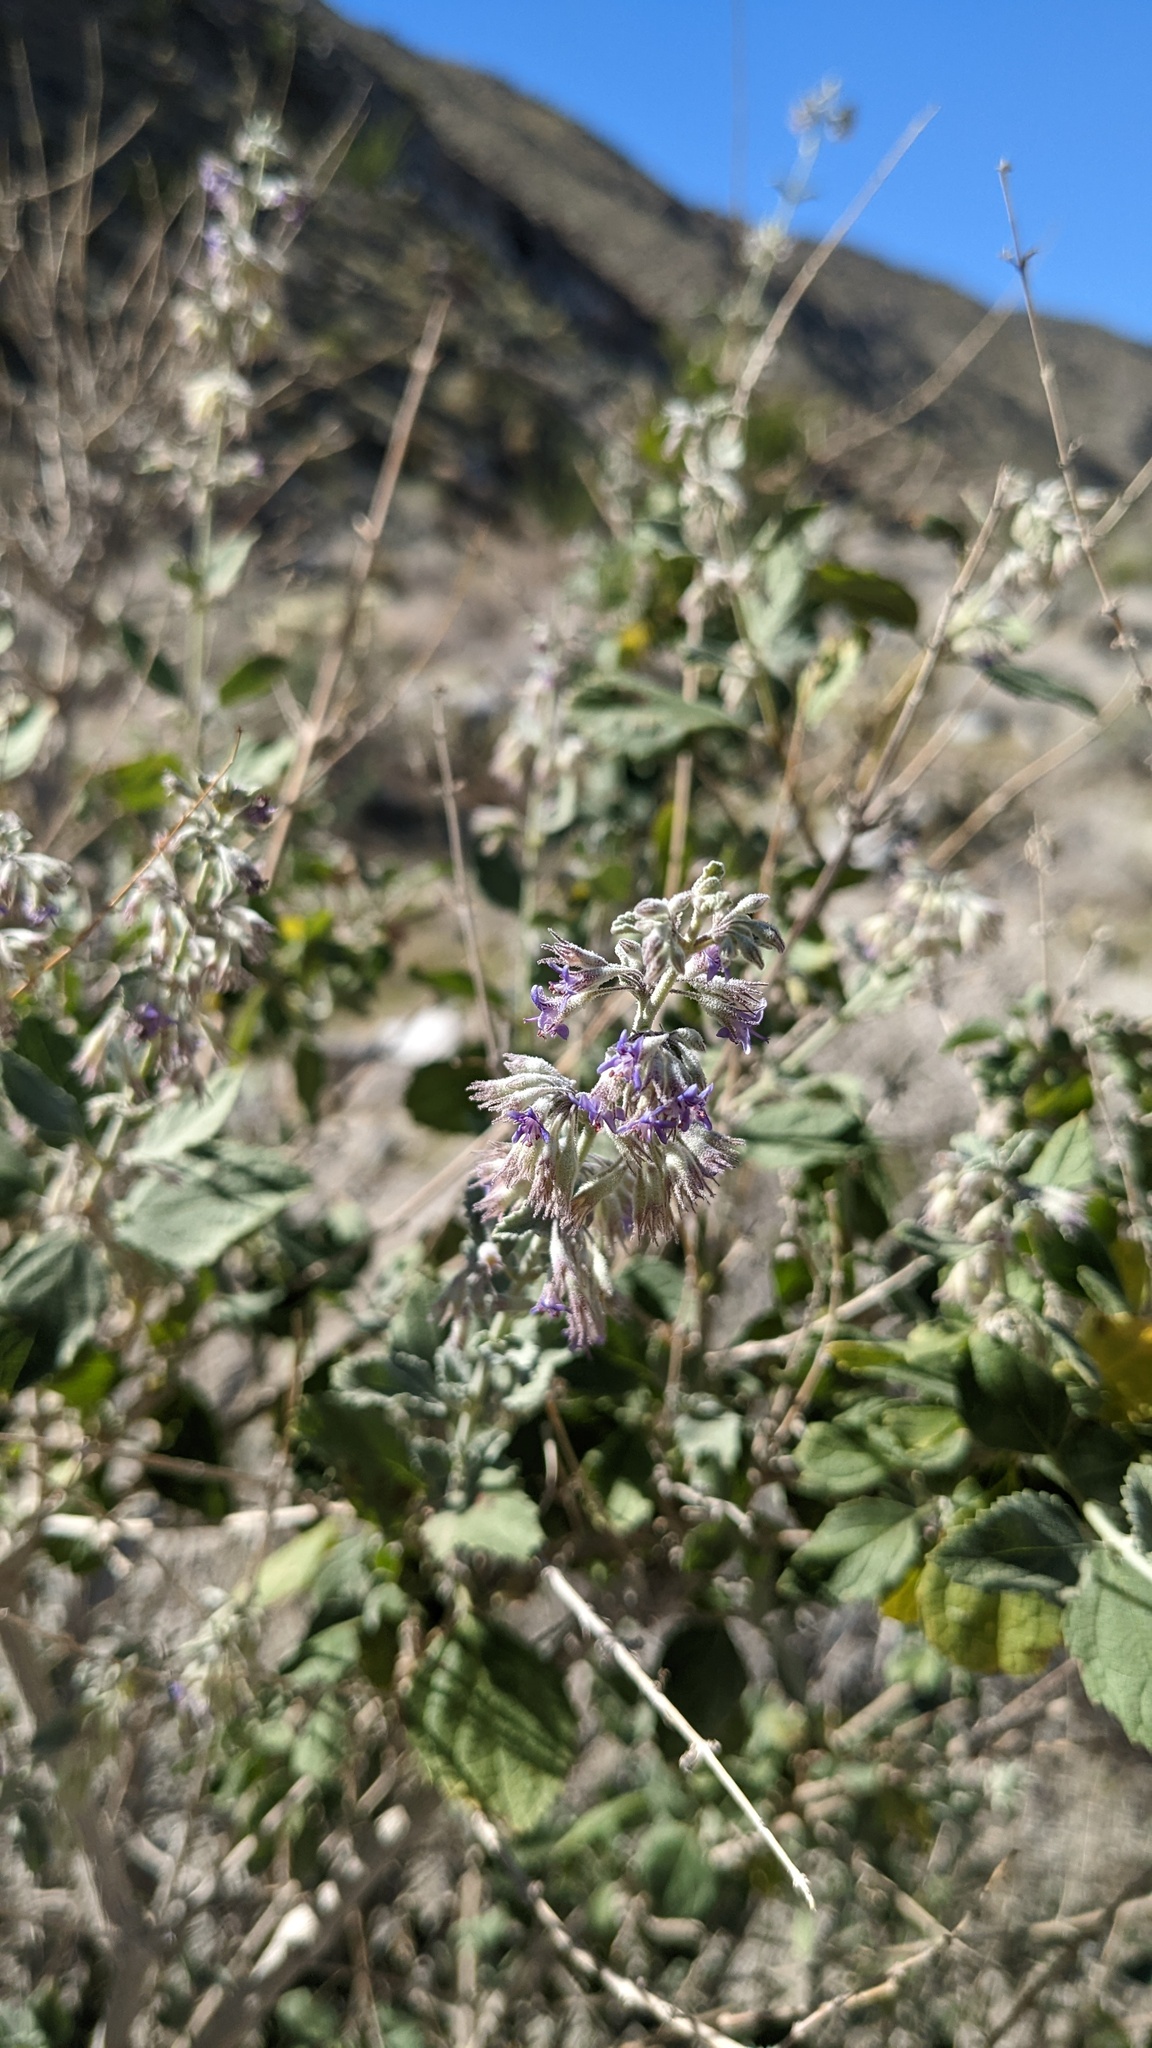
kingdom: Plantae
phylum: Tracheophyta
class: Magnoliopsida
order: Lamiales
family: Lamiaceae
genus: Condea
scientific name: Condea emoryi
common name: Chia
